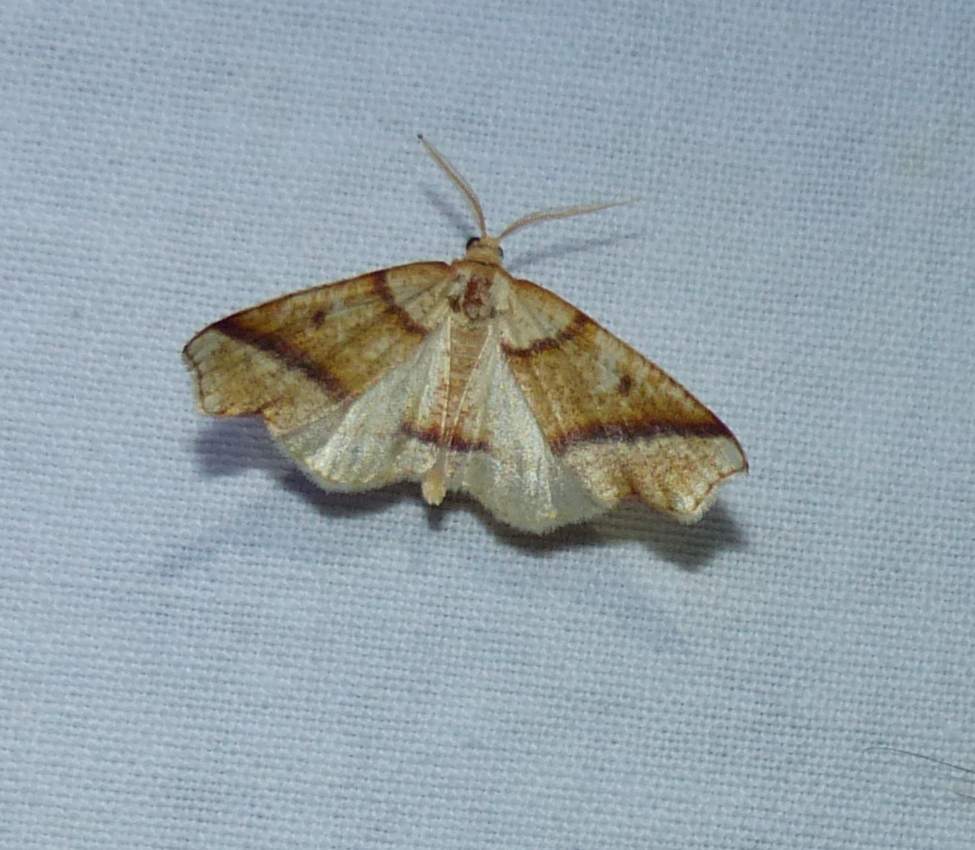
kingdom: Animalia
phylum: Arthropoda
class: Insecta
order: Lepidoptera
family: Geometridae
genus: Plagodis
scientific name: Plagodis alcoolaria
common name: Hollow-spotted plagodis
